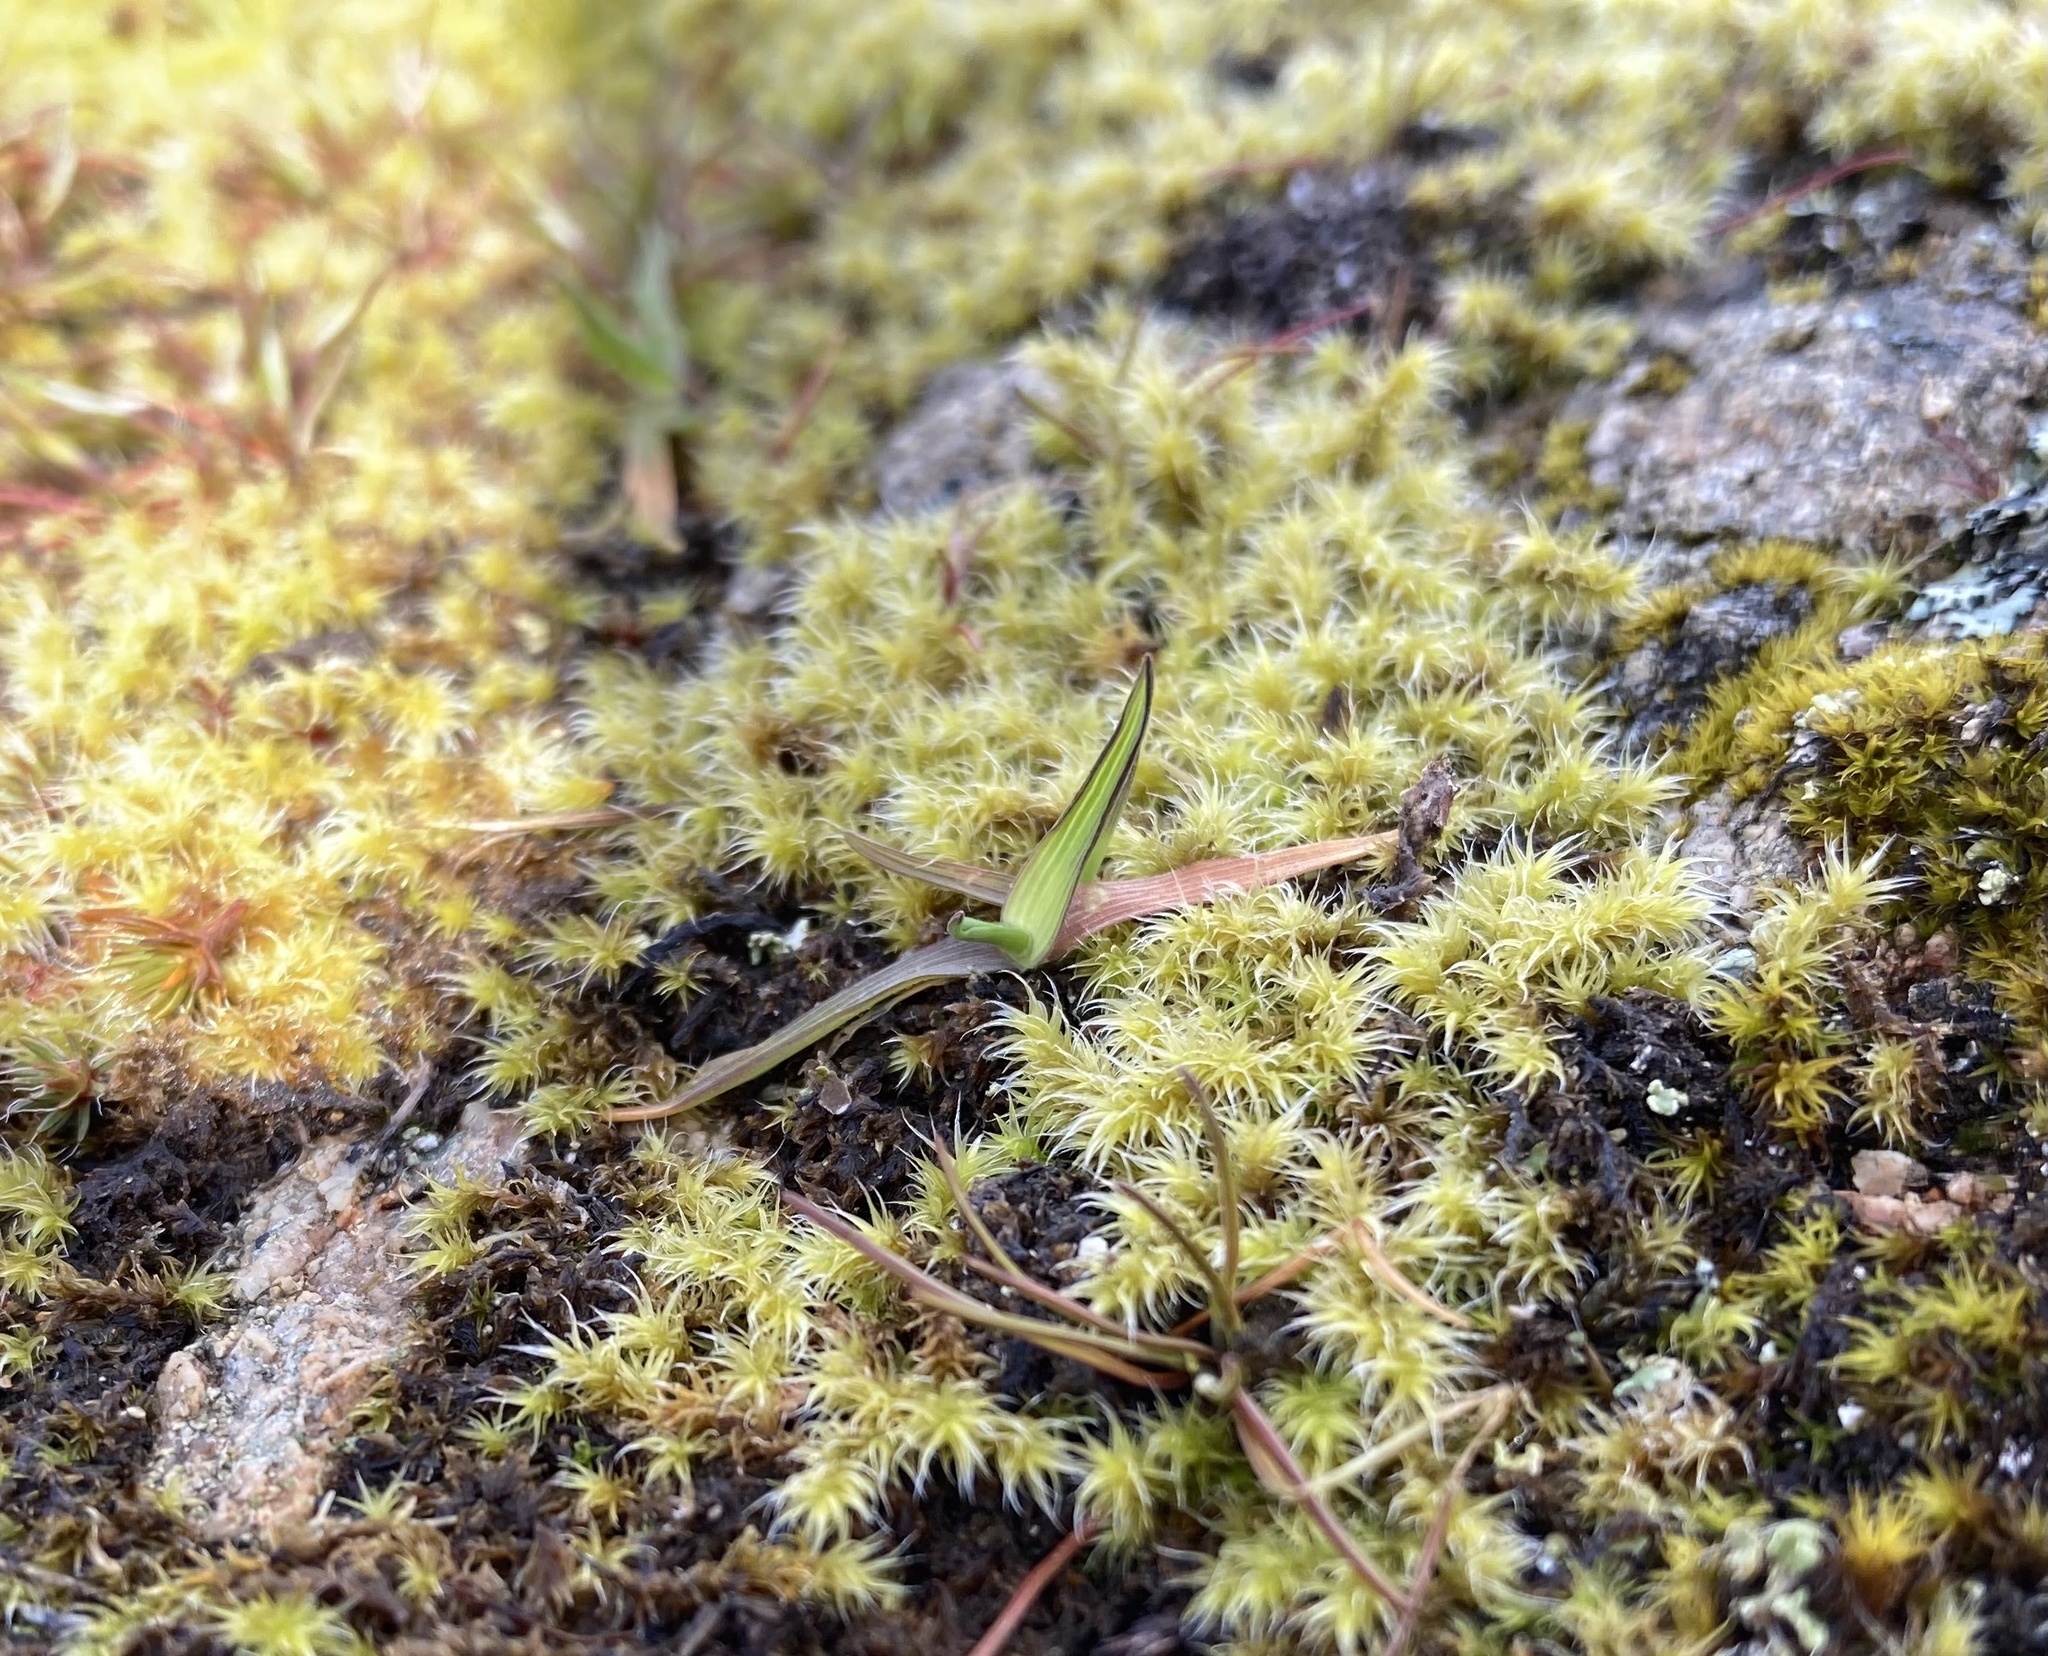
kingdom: Plantae
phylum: Bryophyta
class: Bryopsida
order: Grimmiales
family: Grimmiaceae
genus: Niphotrichum
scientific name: Niphotrichum elongatum
